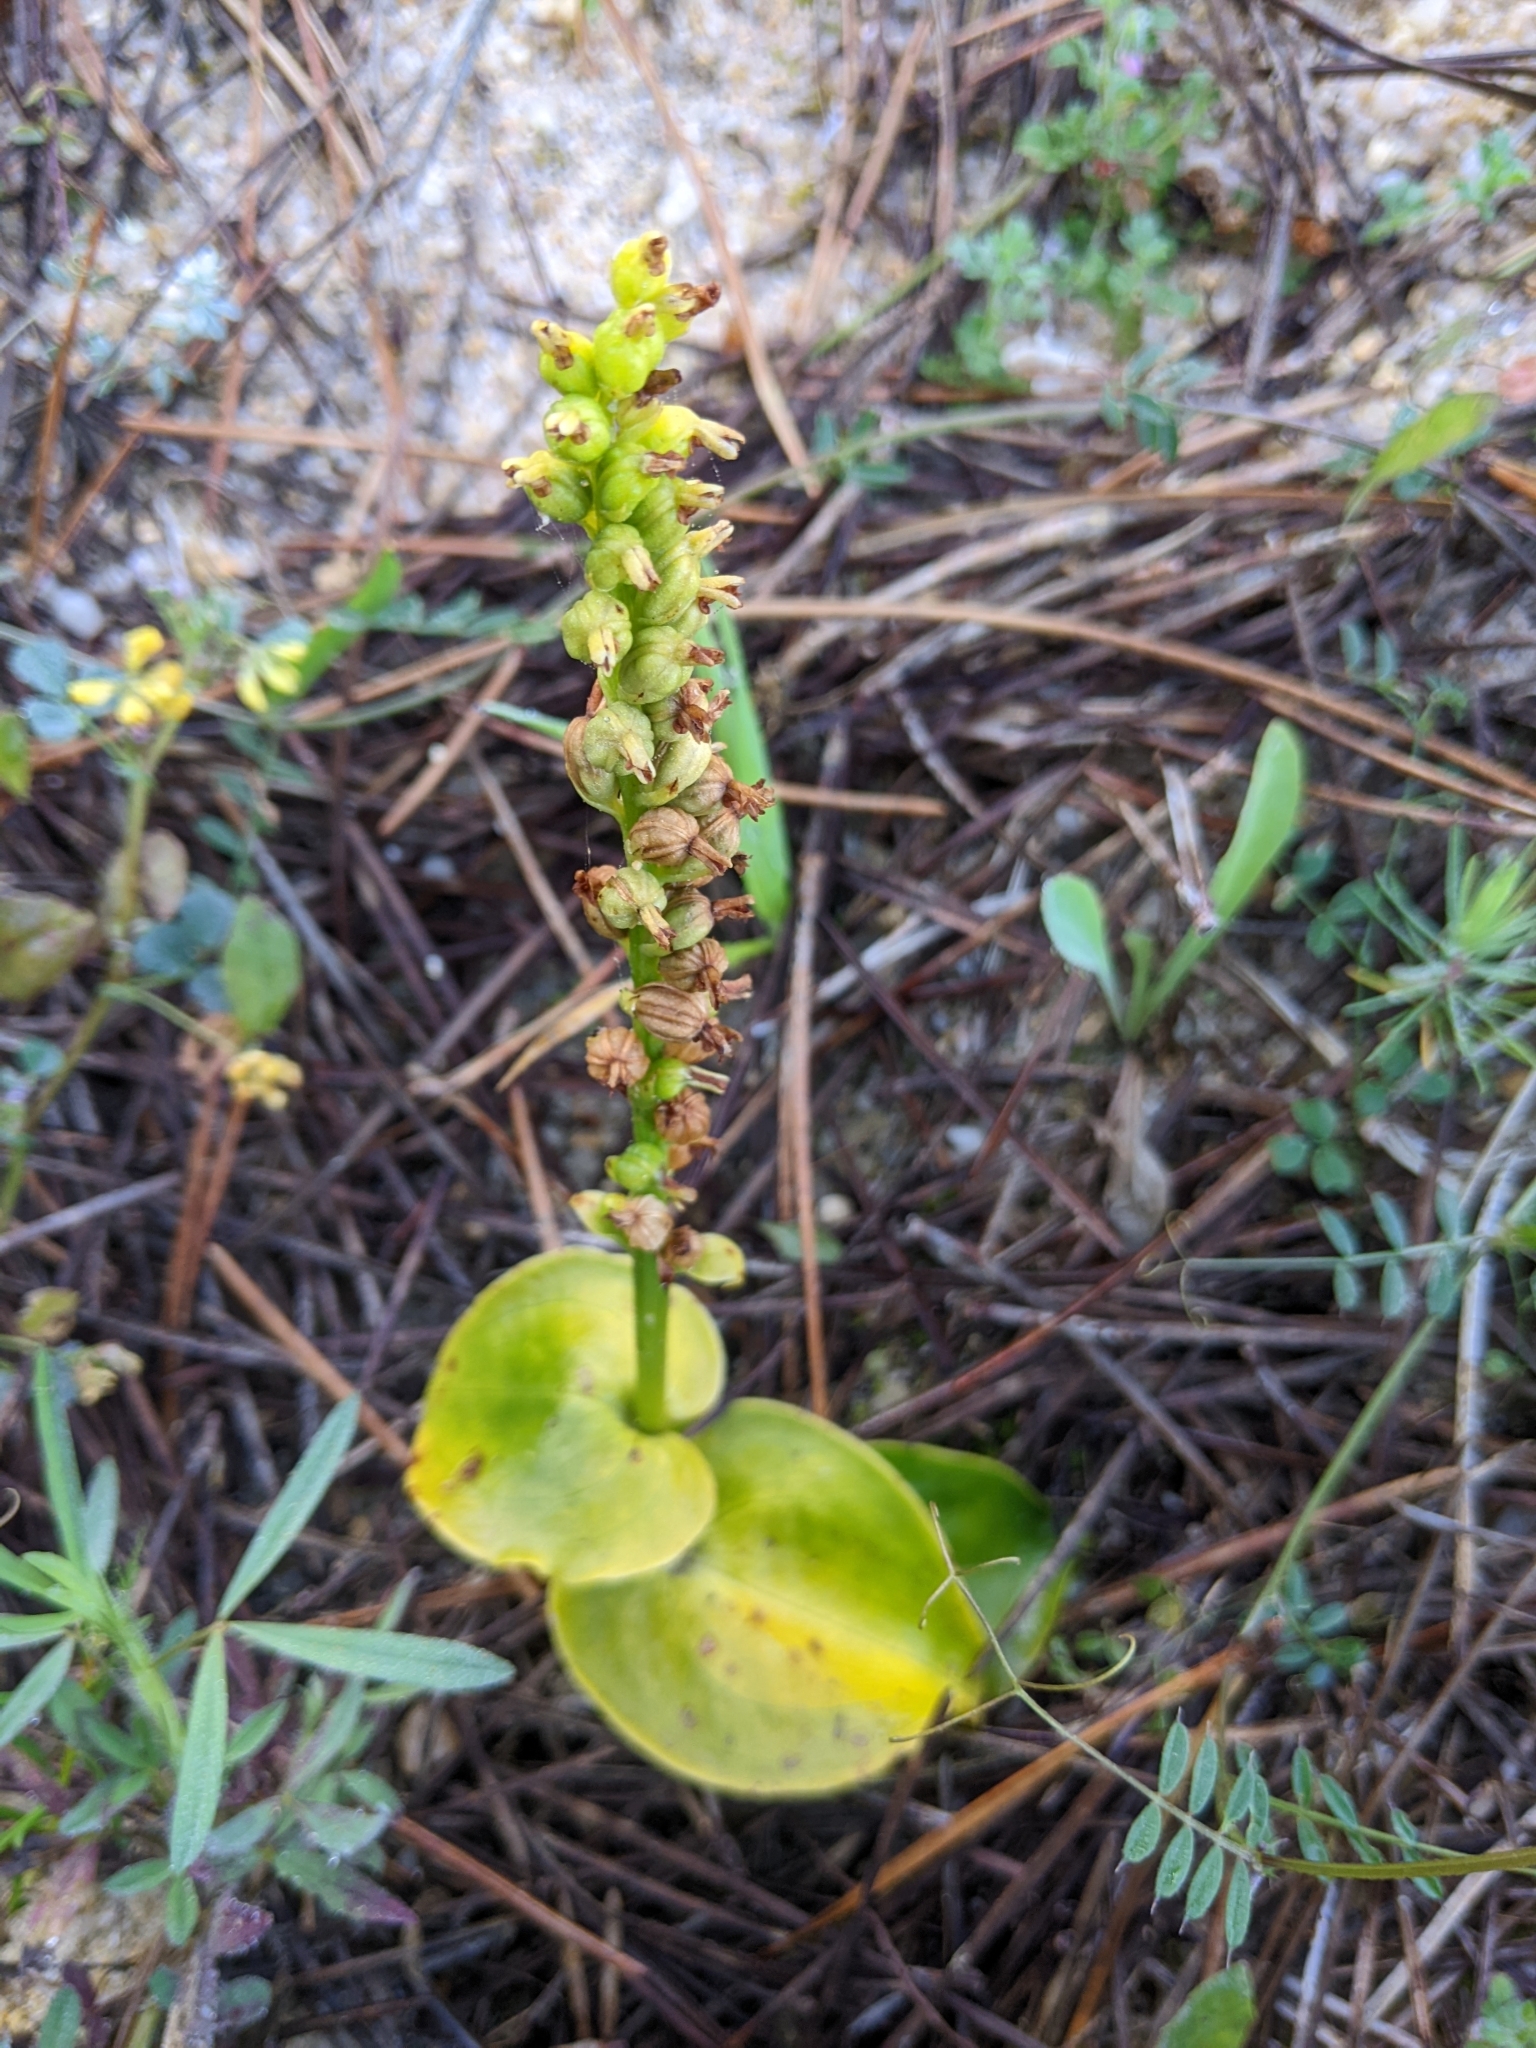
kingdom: Plantae
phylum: Tracheophyta
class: Liliopsida
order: Asparagales
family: Orchidaceae
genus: Gennaria
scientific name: Gennaria diphylla
